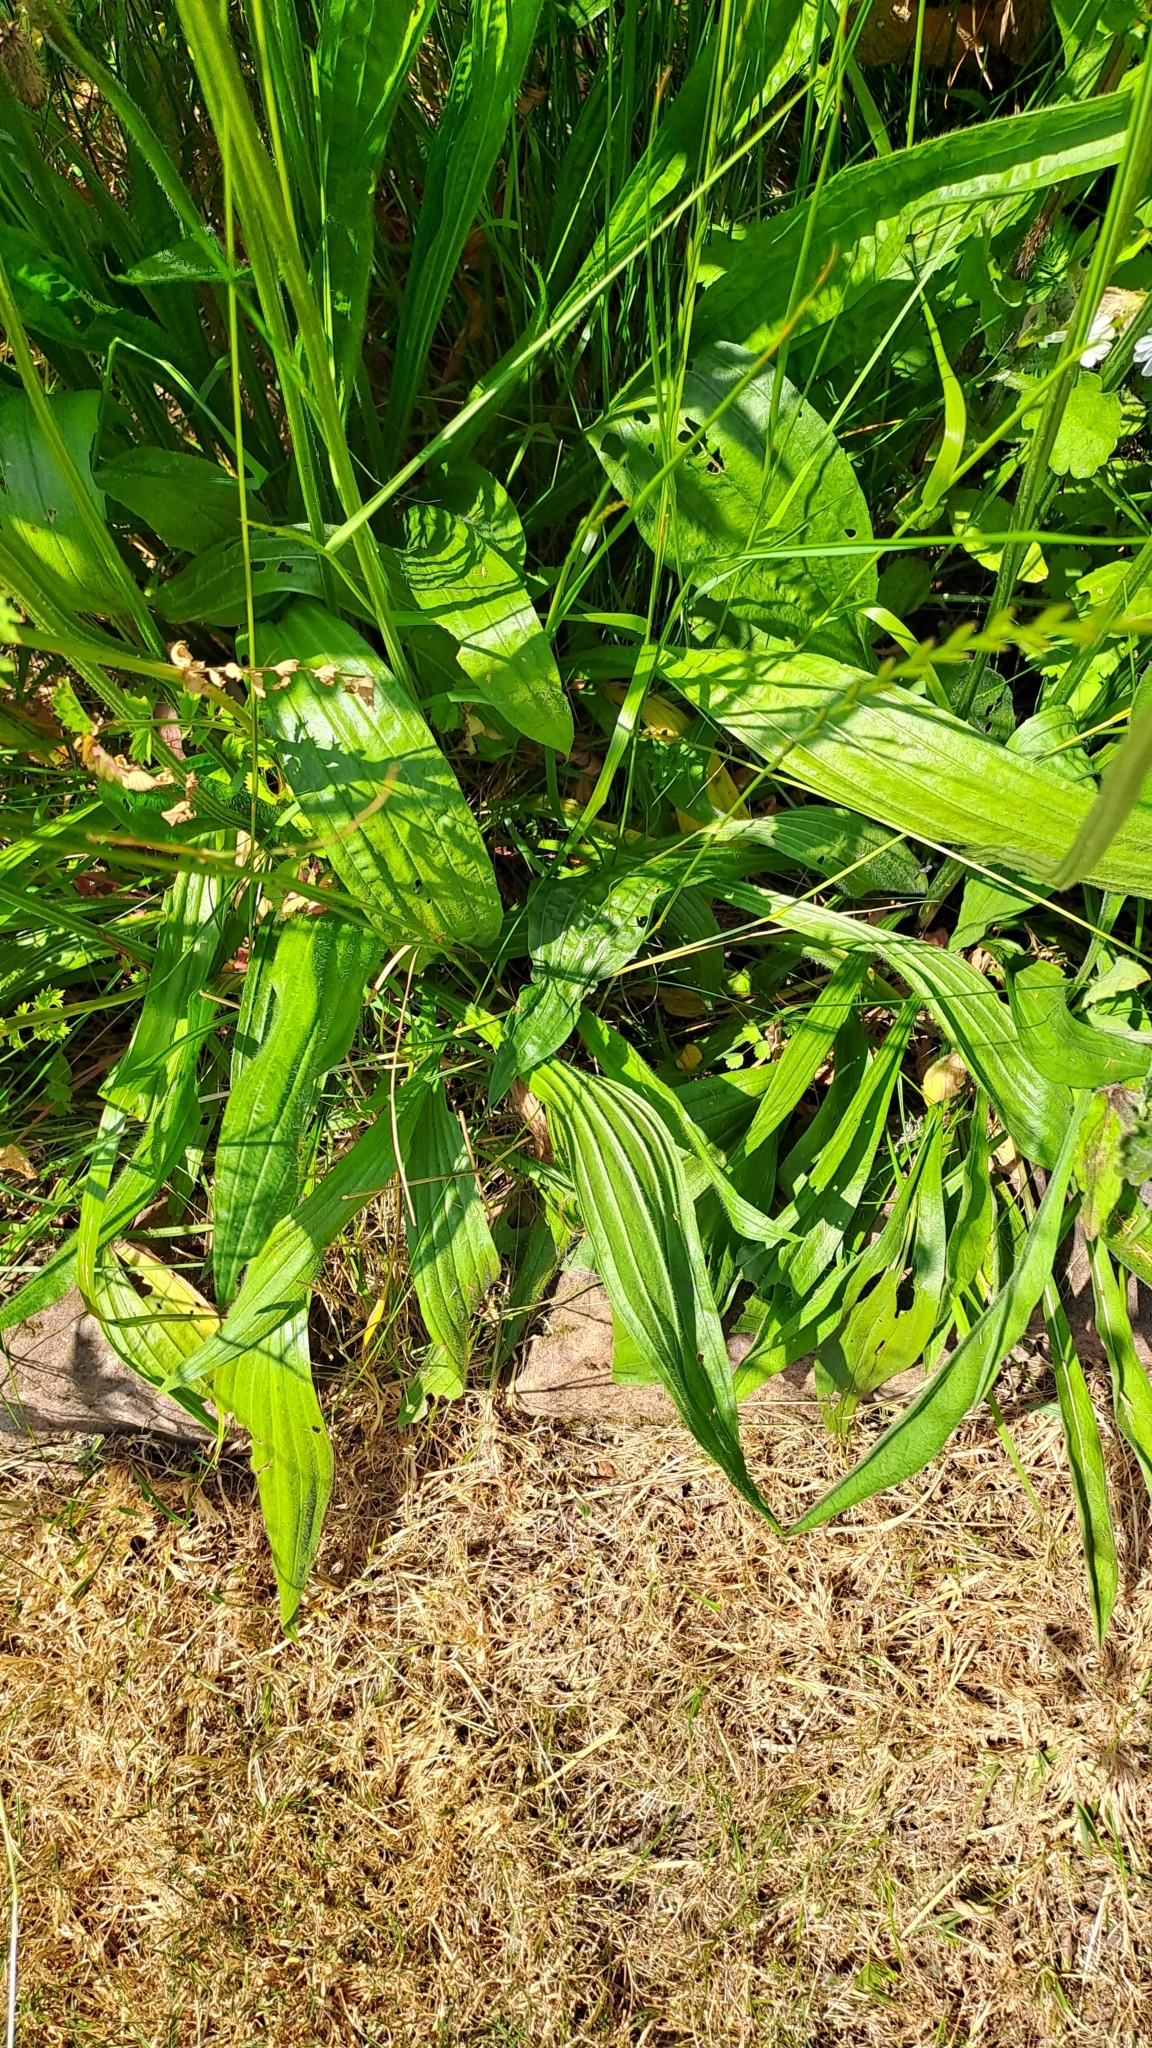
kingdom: Plantae
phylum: Tracheophyta
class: Magnoliopsida
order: Lamiales
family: Plantaginaceae
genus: Plantago
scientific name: Plantago lanceolata
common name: Ribwort plantain
